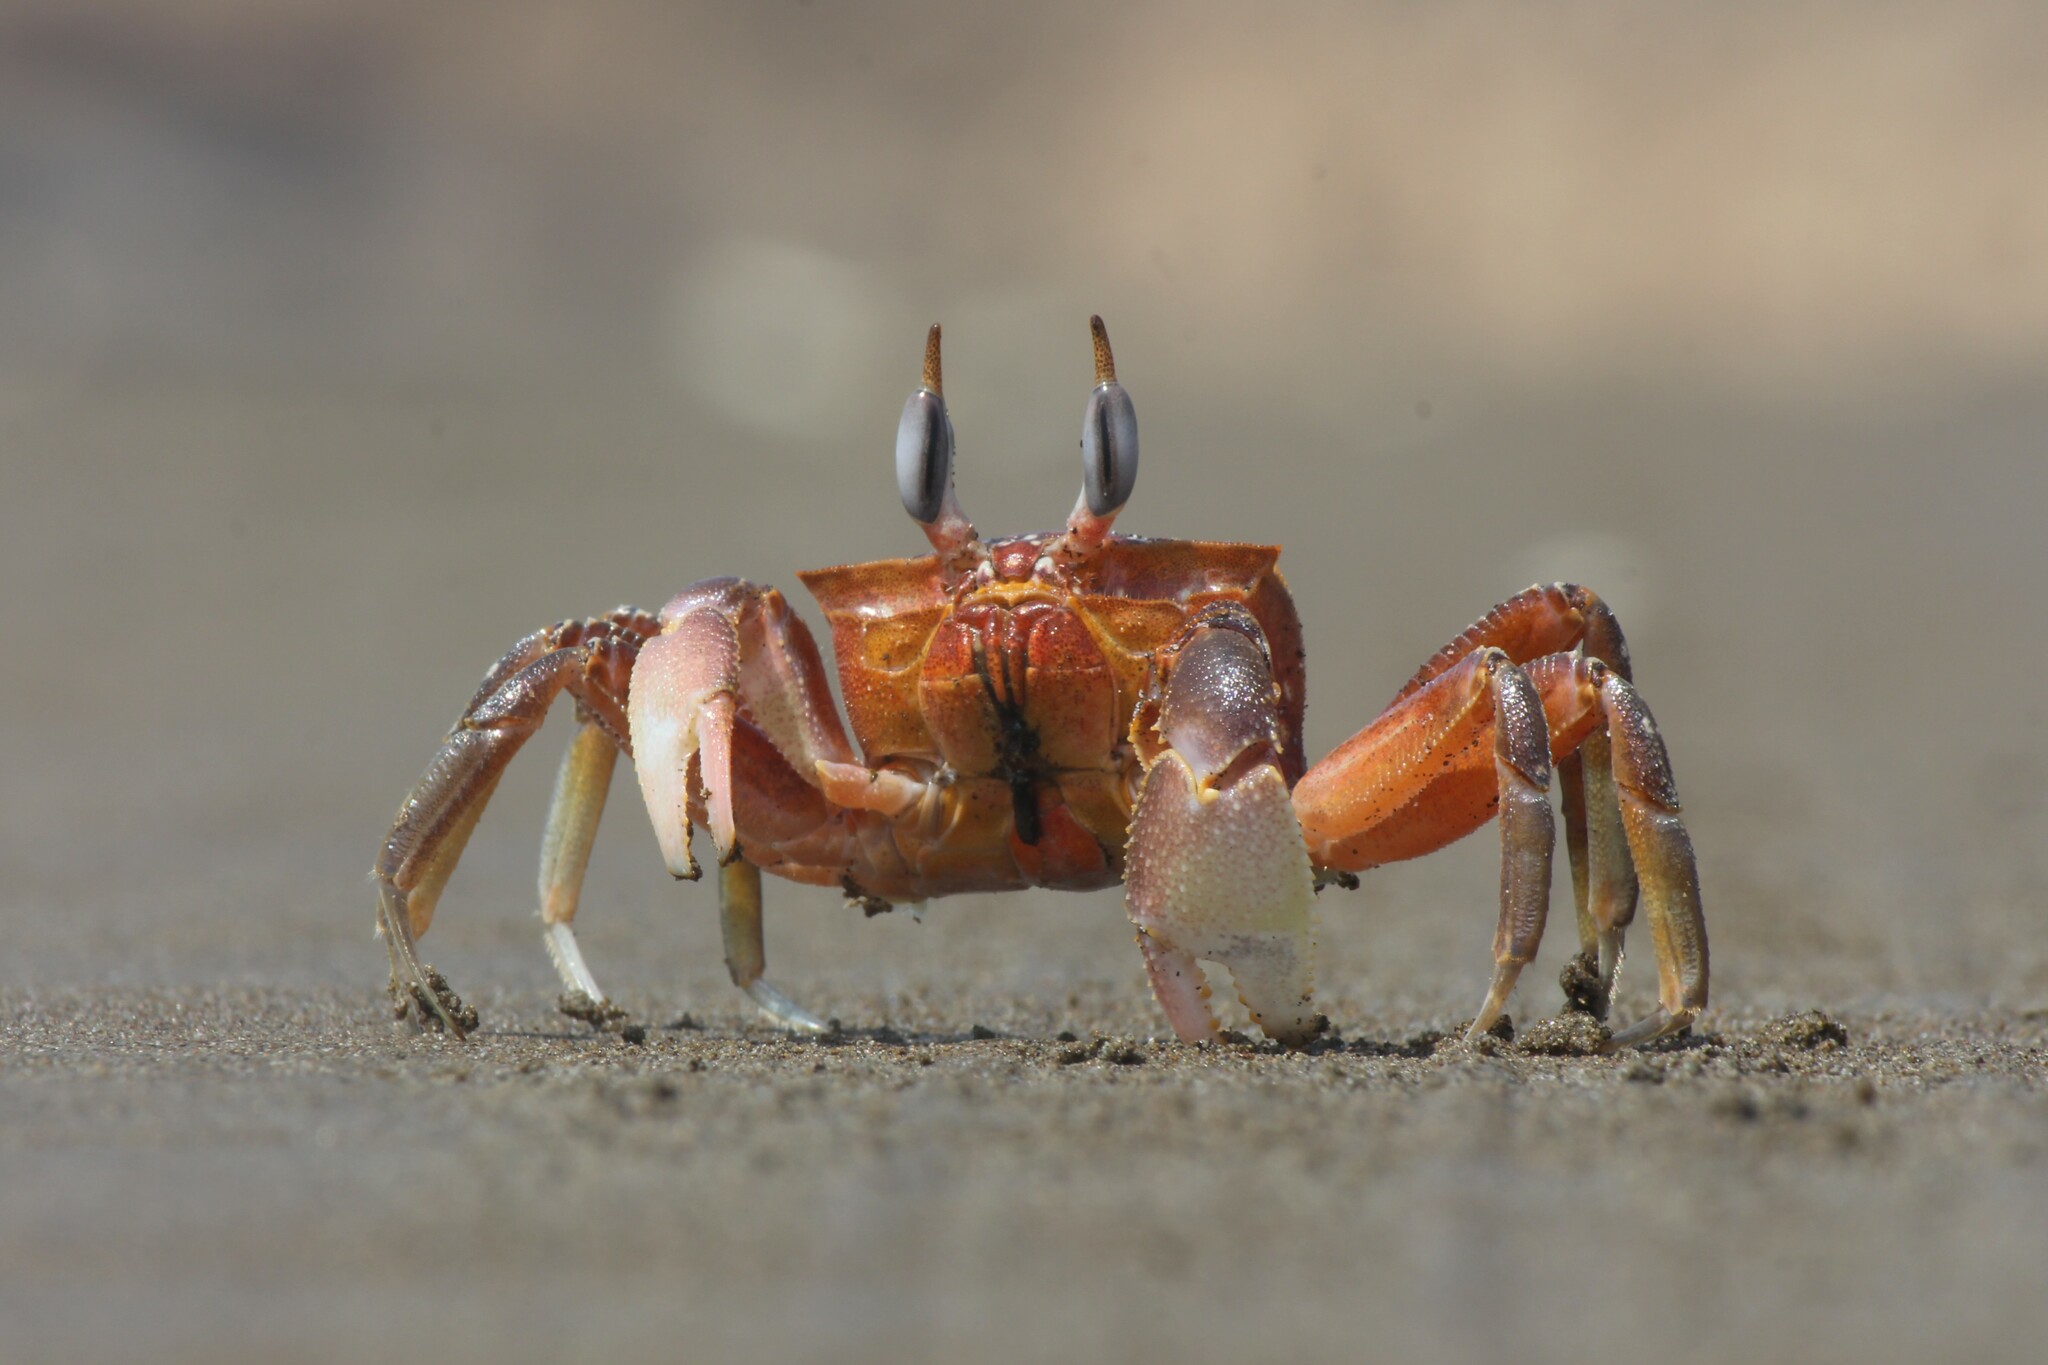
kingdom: Animalia
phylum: Arthropoda
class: Malacostraca
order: Decapoda
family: Ocypodidae
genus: Ocypode
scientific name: Ocypode gaudichaudii
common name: Pacific ghost crab
